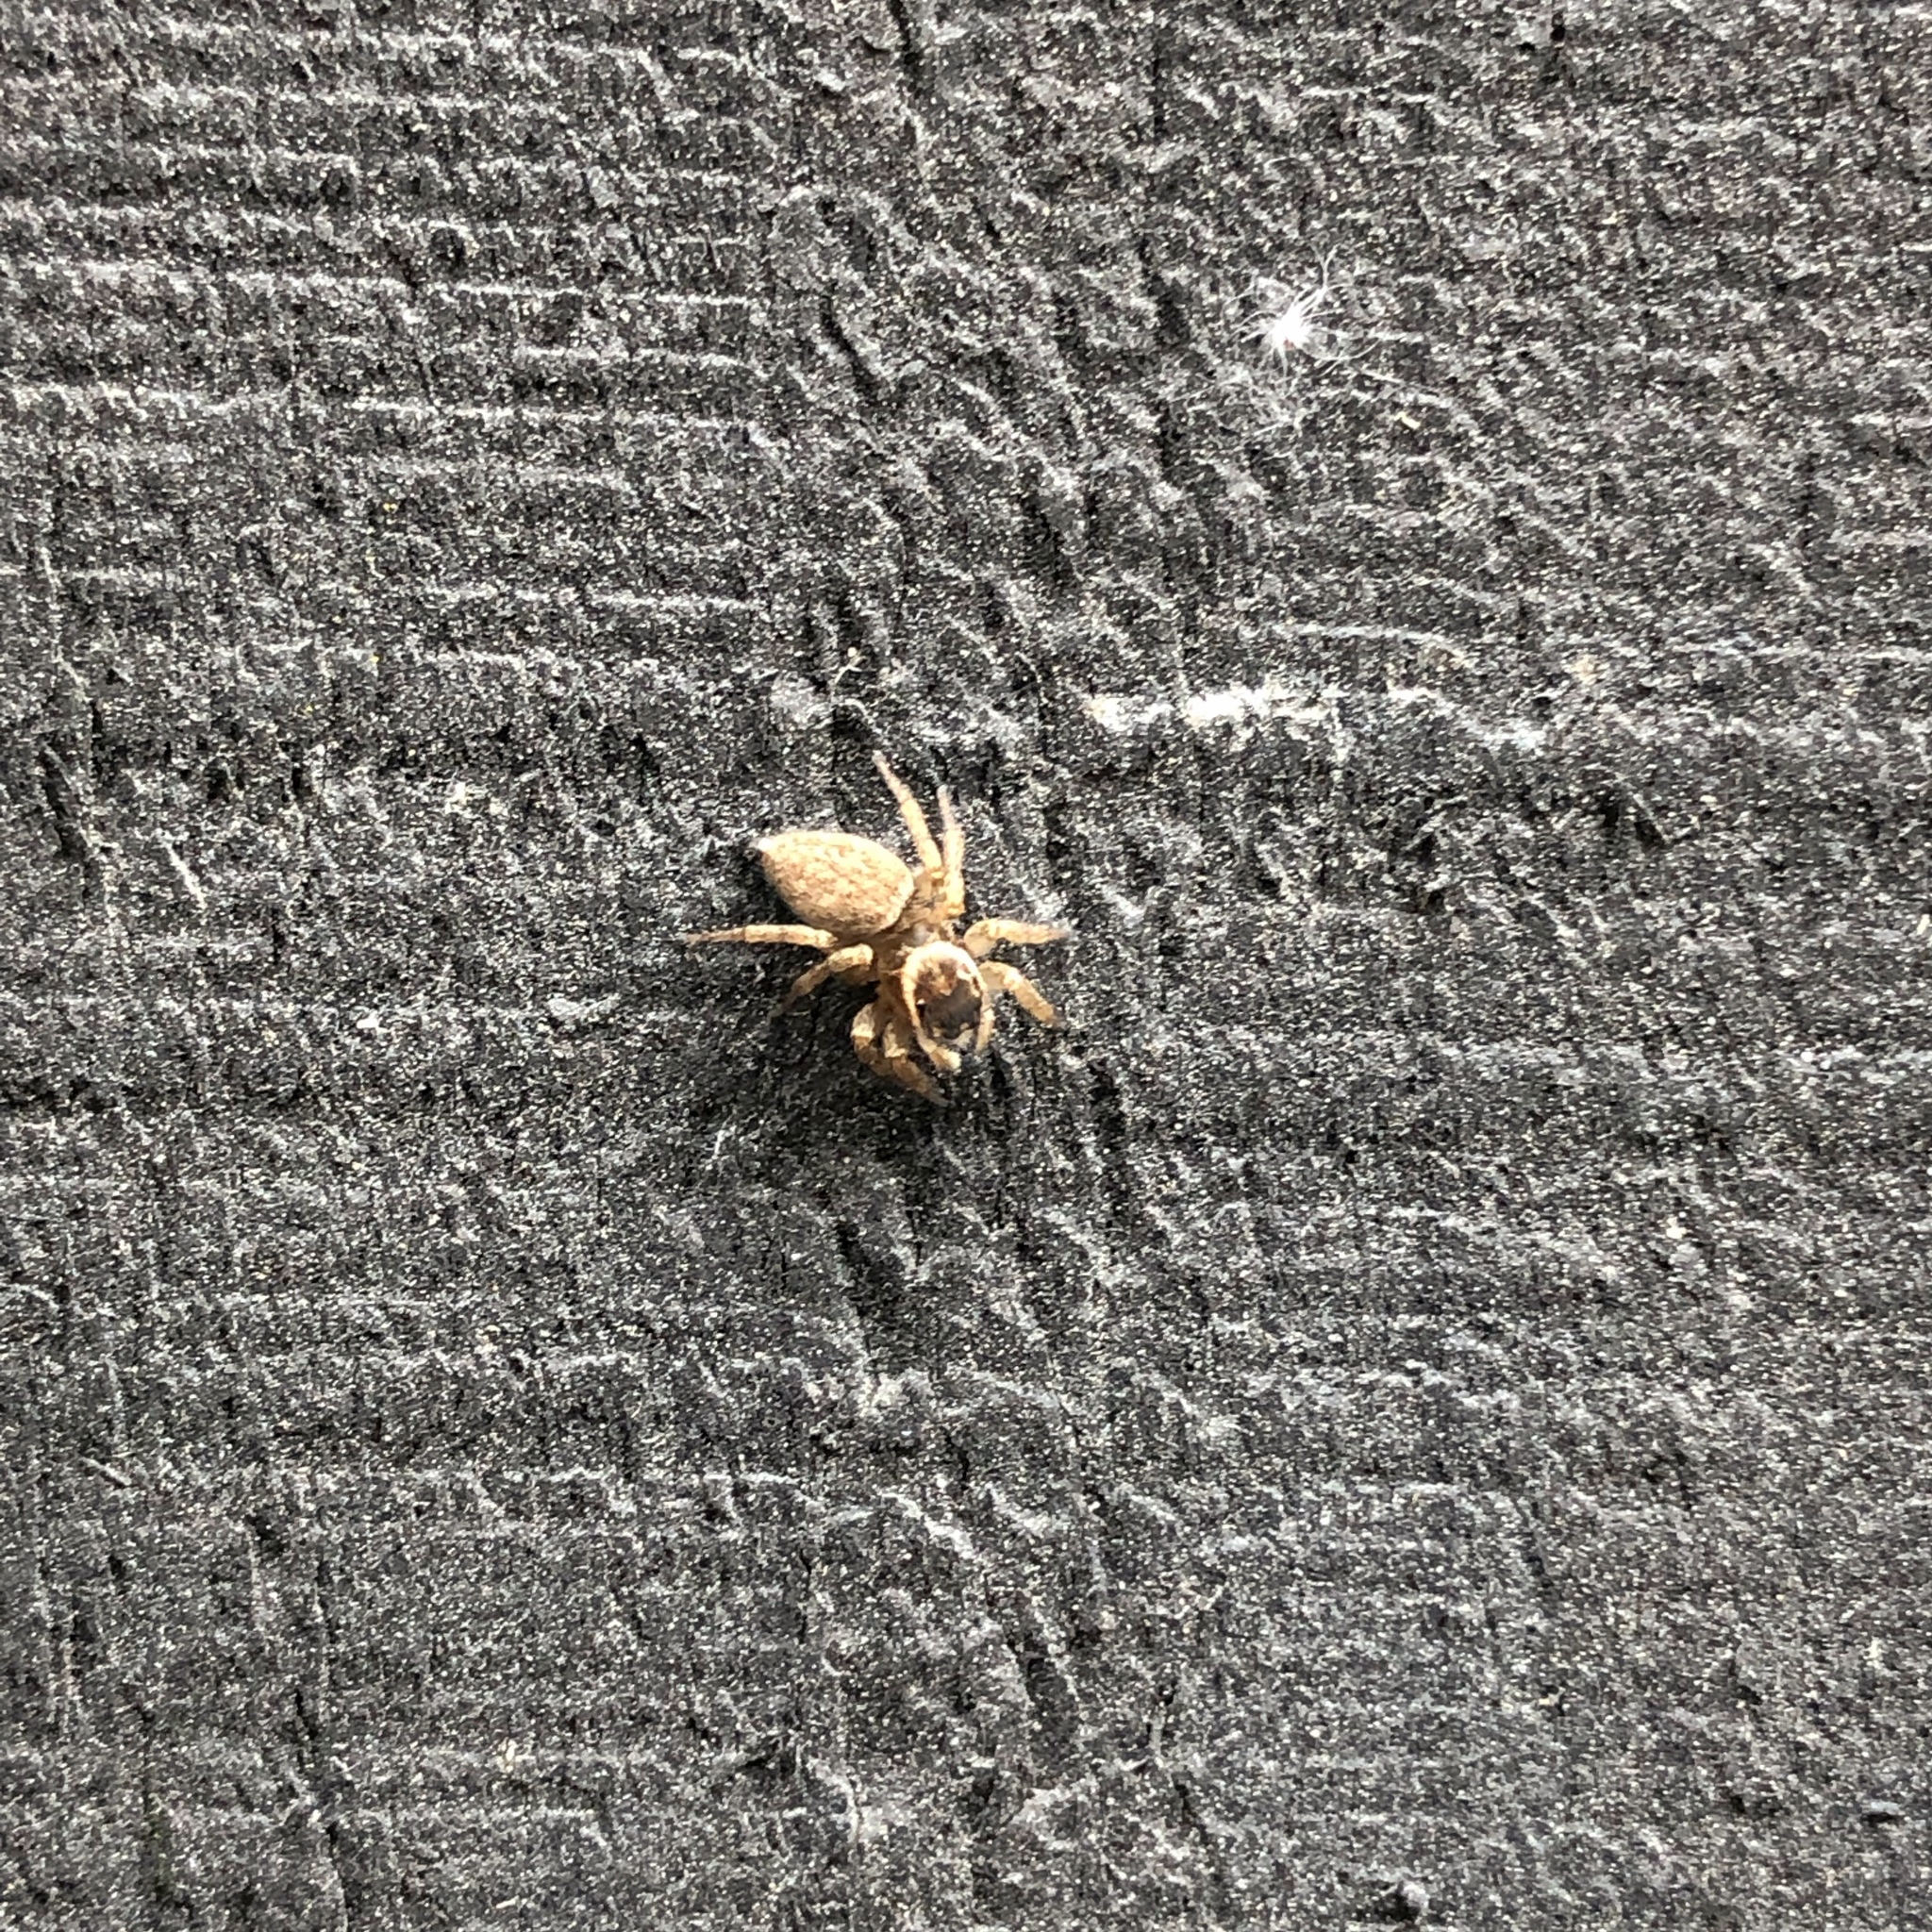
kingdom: Animalia
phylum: Arthropoda
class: Arachnida
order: Araneae
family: Salticidae
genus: Maratus
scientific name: Maratus griseus
